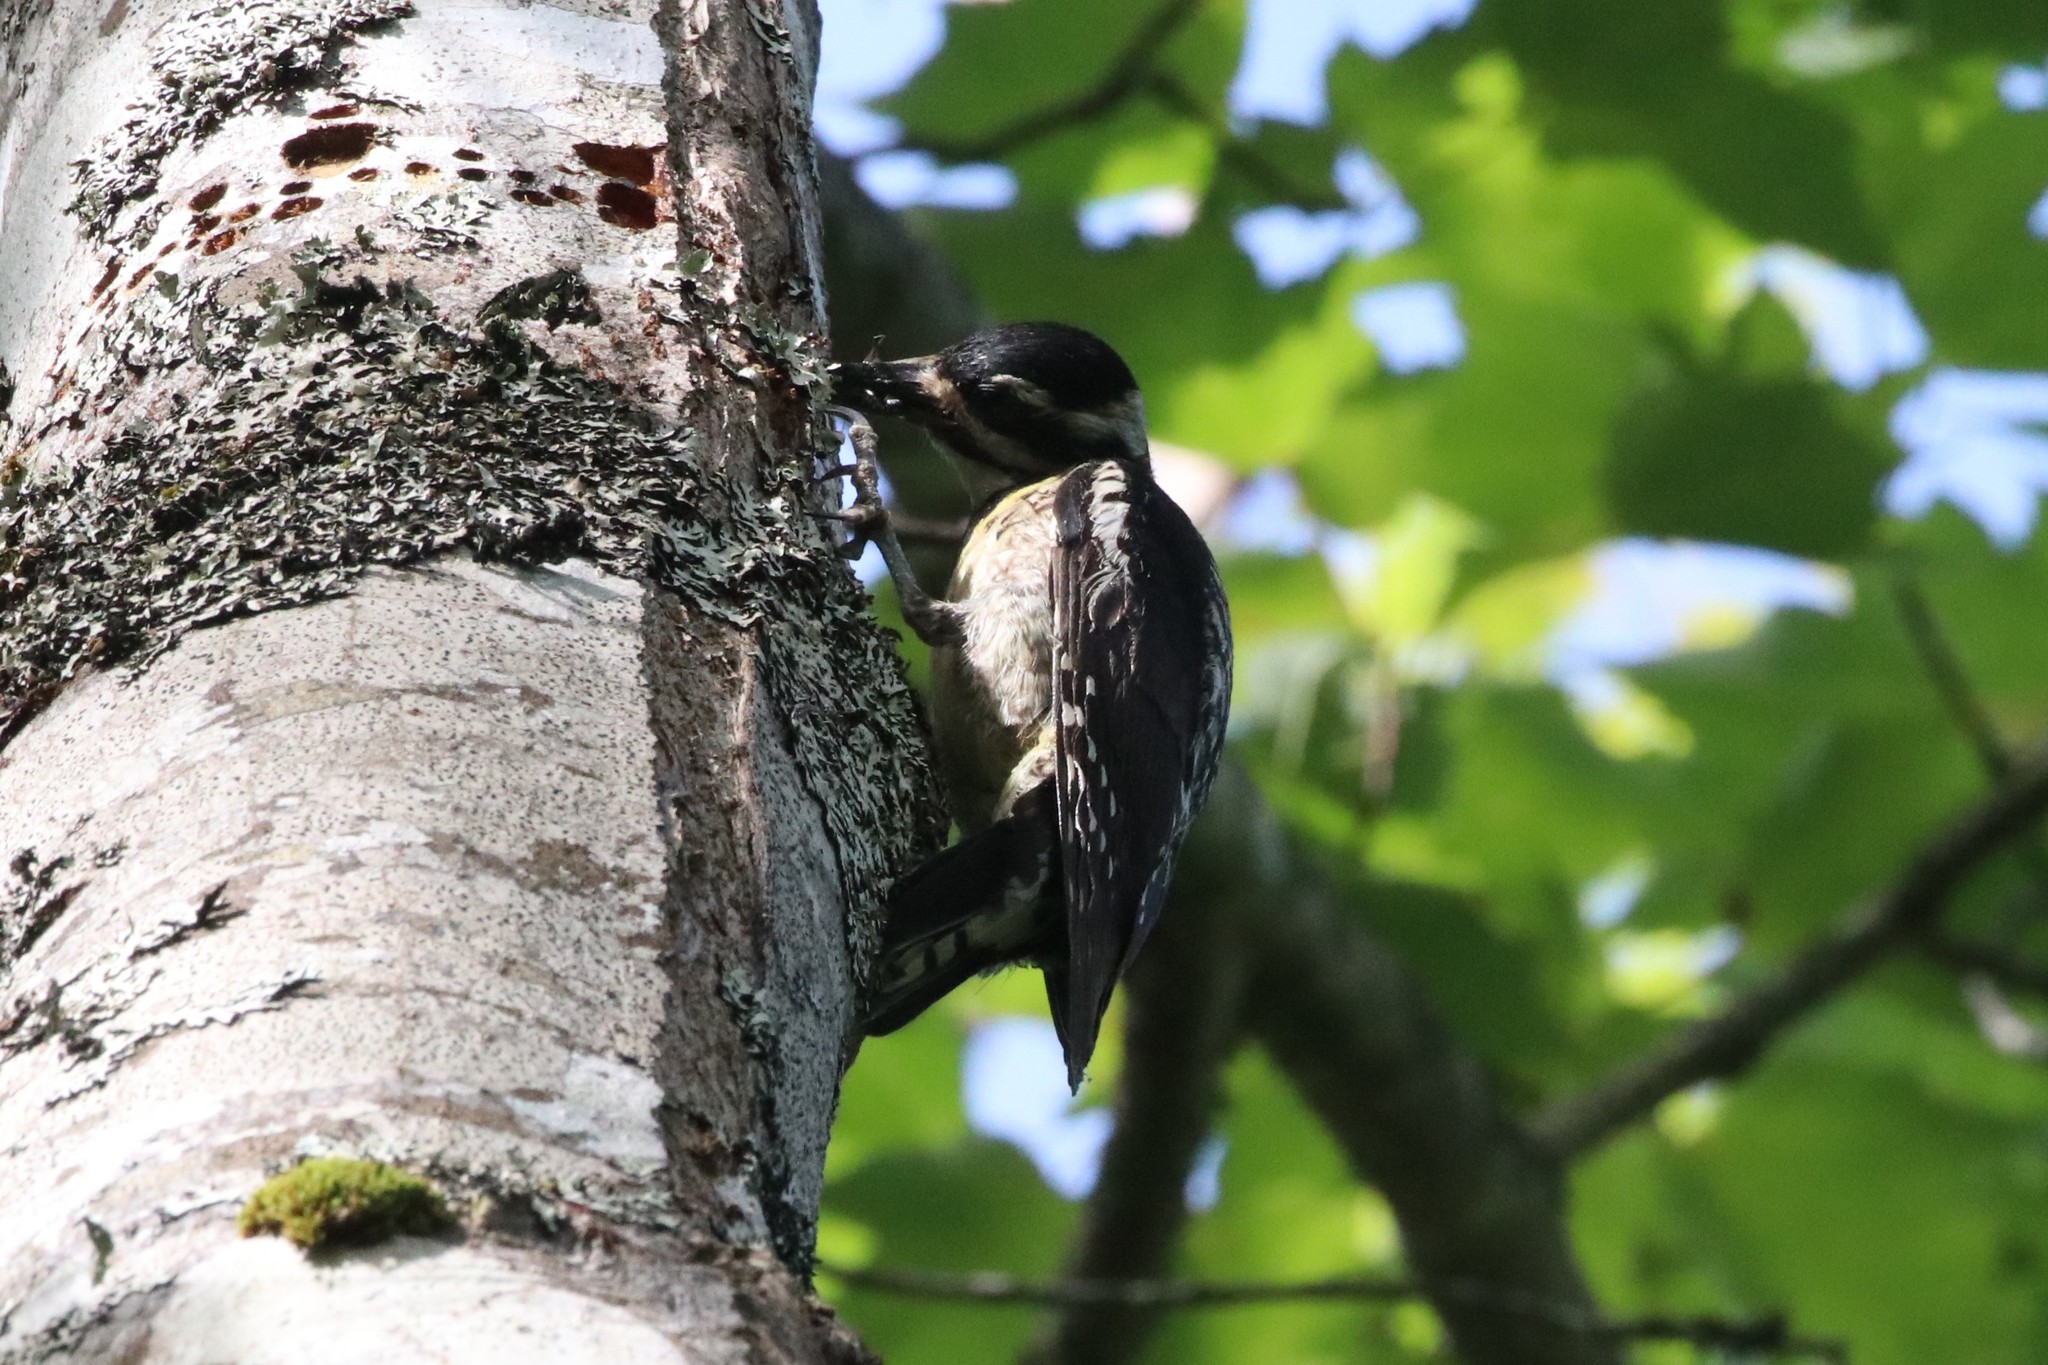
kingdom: Animalia
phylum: Chordata
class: Aves
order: Piciformes
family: Picidae
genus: Sphyrapicus
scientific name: Sphyrapicus varius
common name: Yellow-bellied sapsucker
